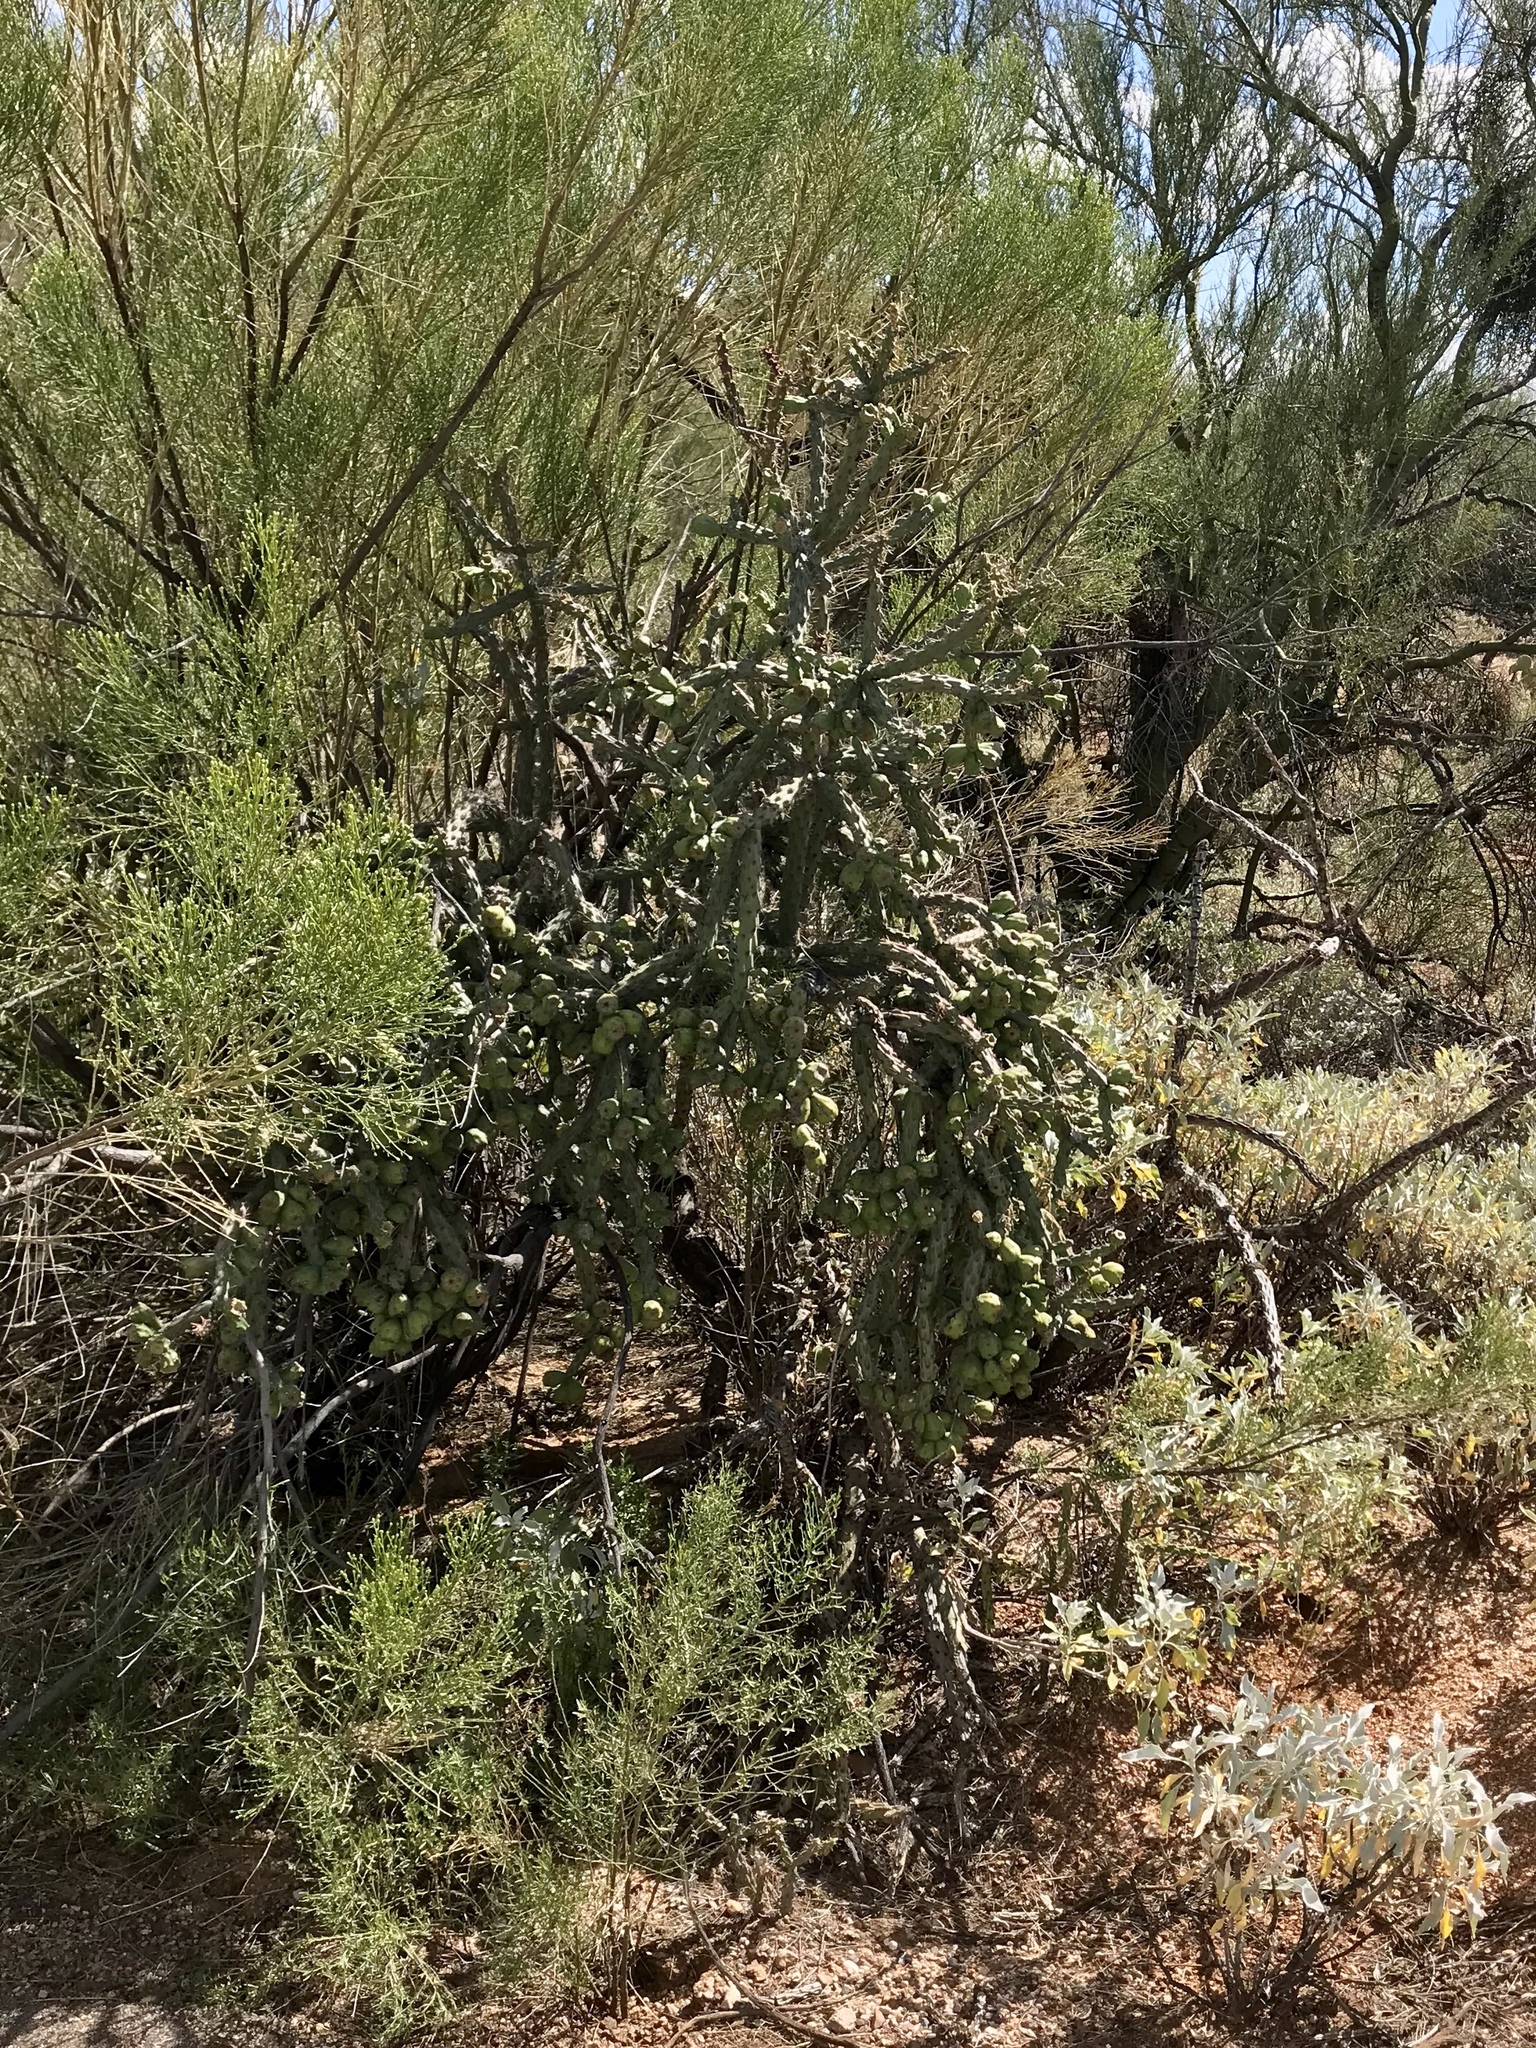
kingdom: Plantae
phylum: Tracheophyta
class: Magnoliopsida
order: Caryophyllales
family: Cactaceae
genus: Cylindropuntia
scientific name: Cylindropuntia thurberi
